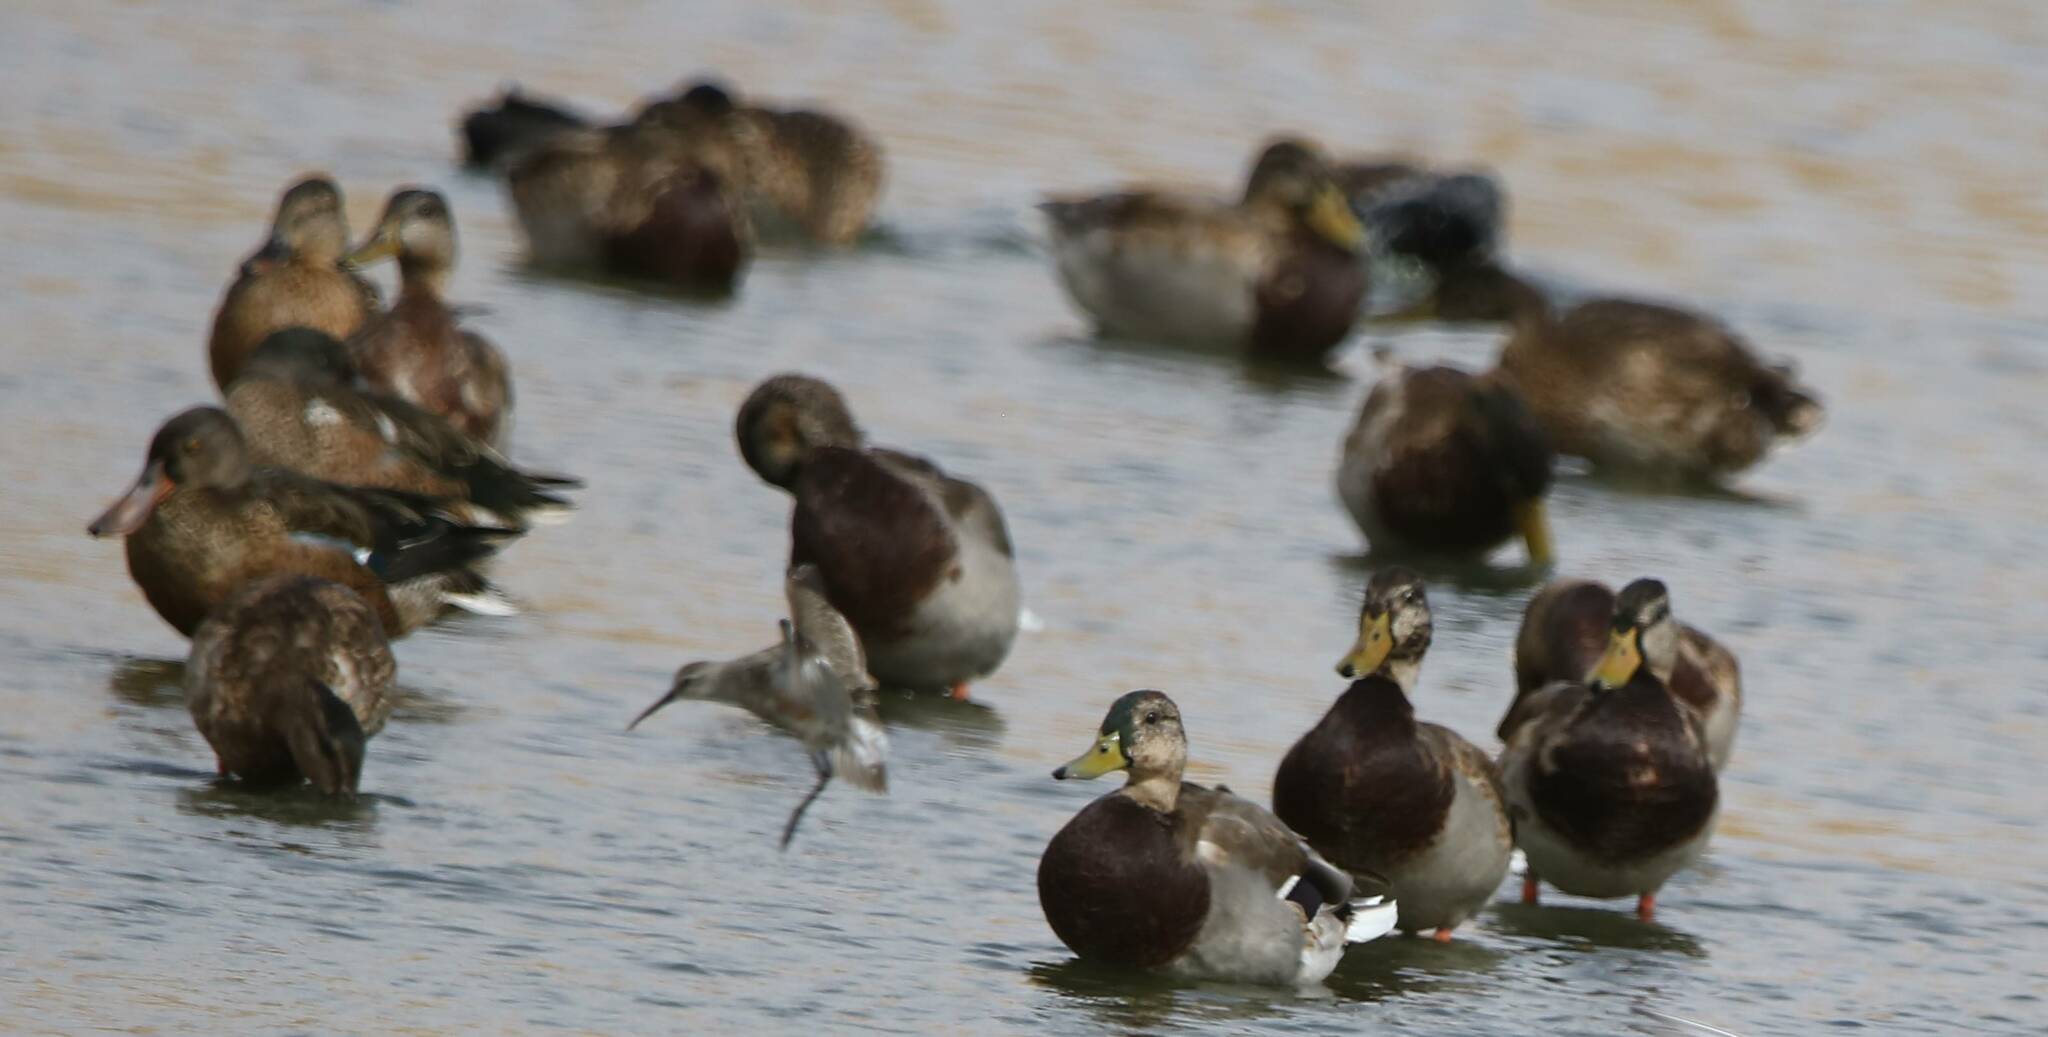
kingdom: Animalia
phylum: Chordata
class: Aves
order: Charadriiformes
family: Scolopacidae
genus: Calidris
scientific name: Calidris ferruginea
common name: Curlew sandpiper
